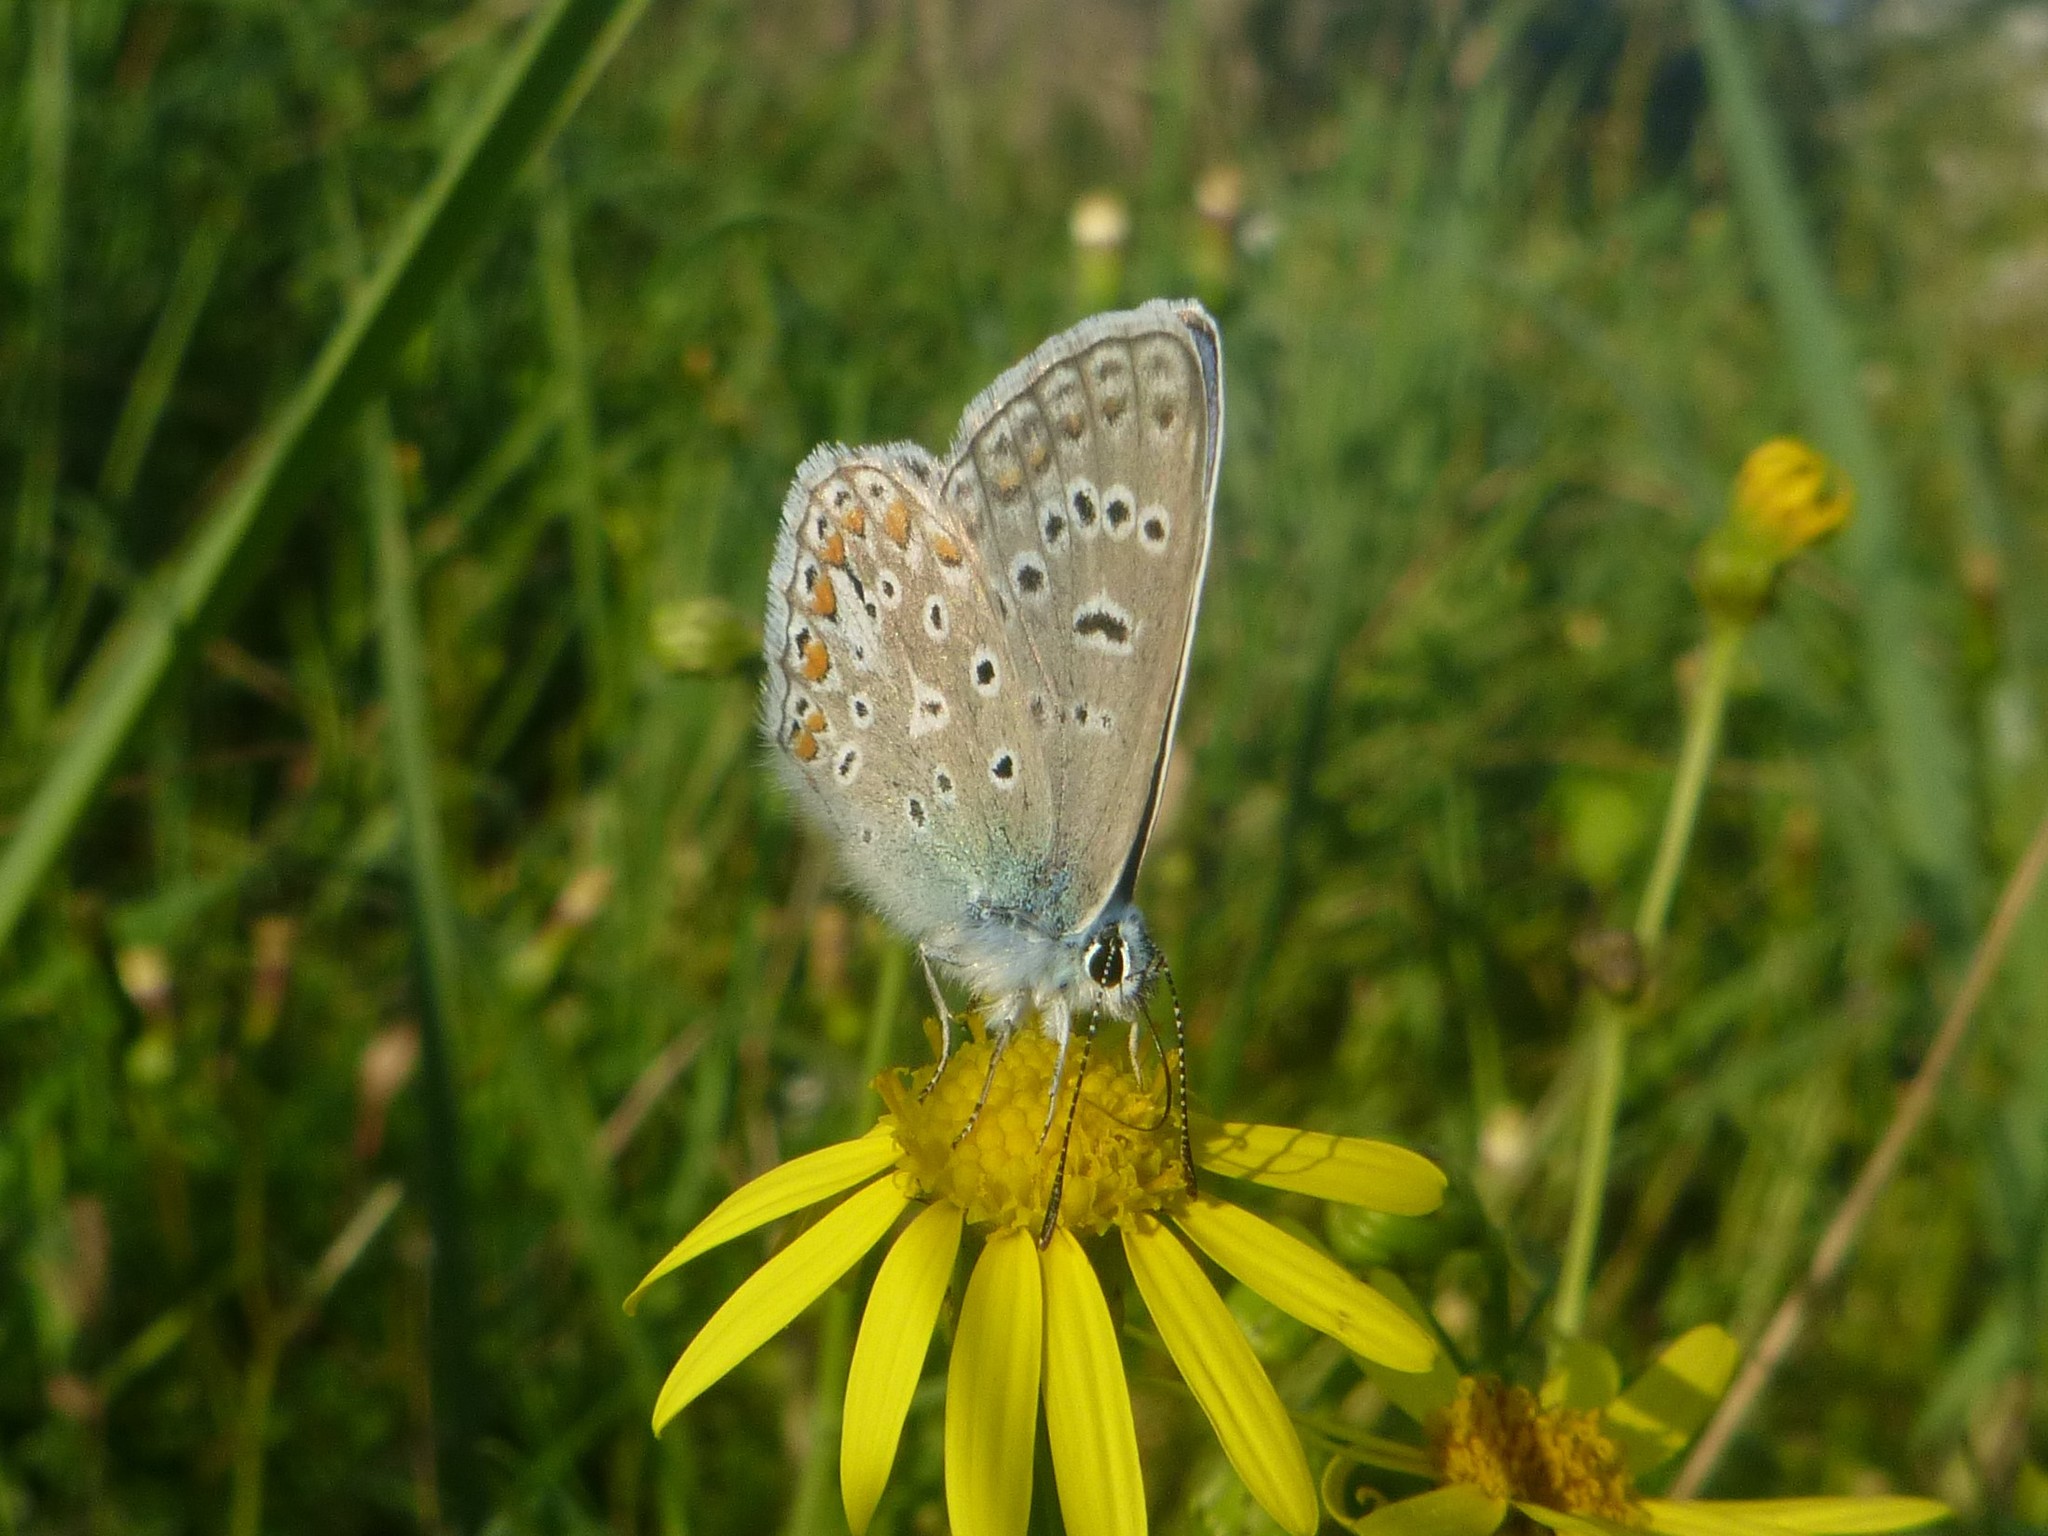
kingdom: Animalia
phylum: Arthropoda
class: Insecta
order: Lepidoptera
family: Lycaenidae
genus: Polyommatus
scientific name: Polyommatus icarus
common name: Common blue
